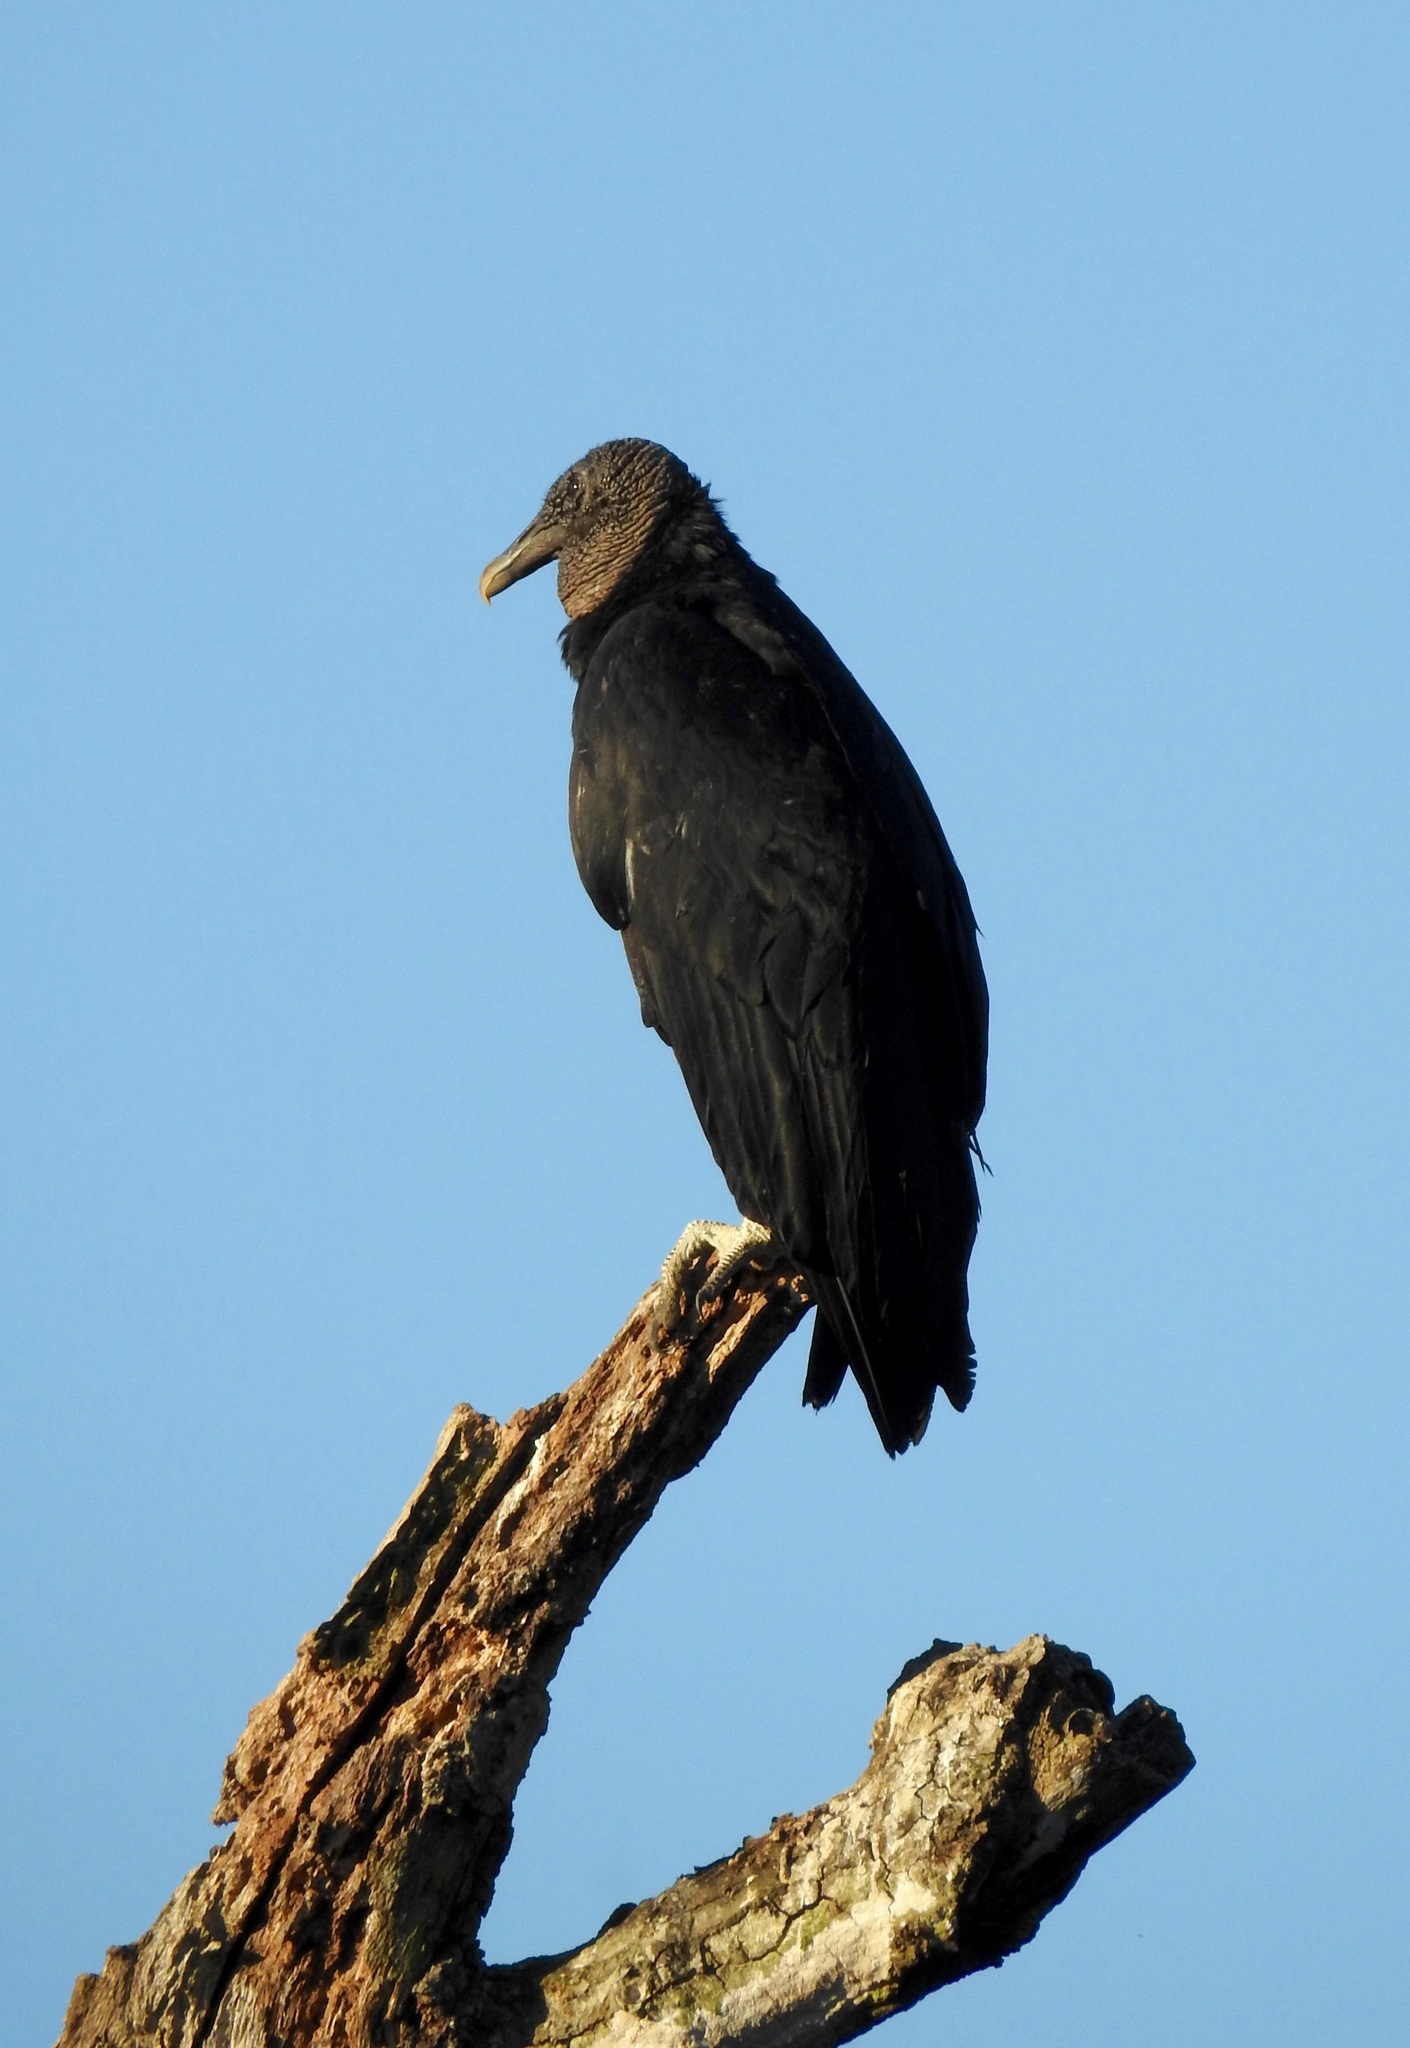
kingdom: Animalia
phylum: Chordata
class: Aves
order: Accipitriformes
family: Cathartidae
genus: Coragyps
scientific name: Coragyps atratus
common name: Black vulture
